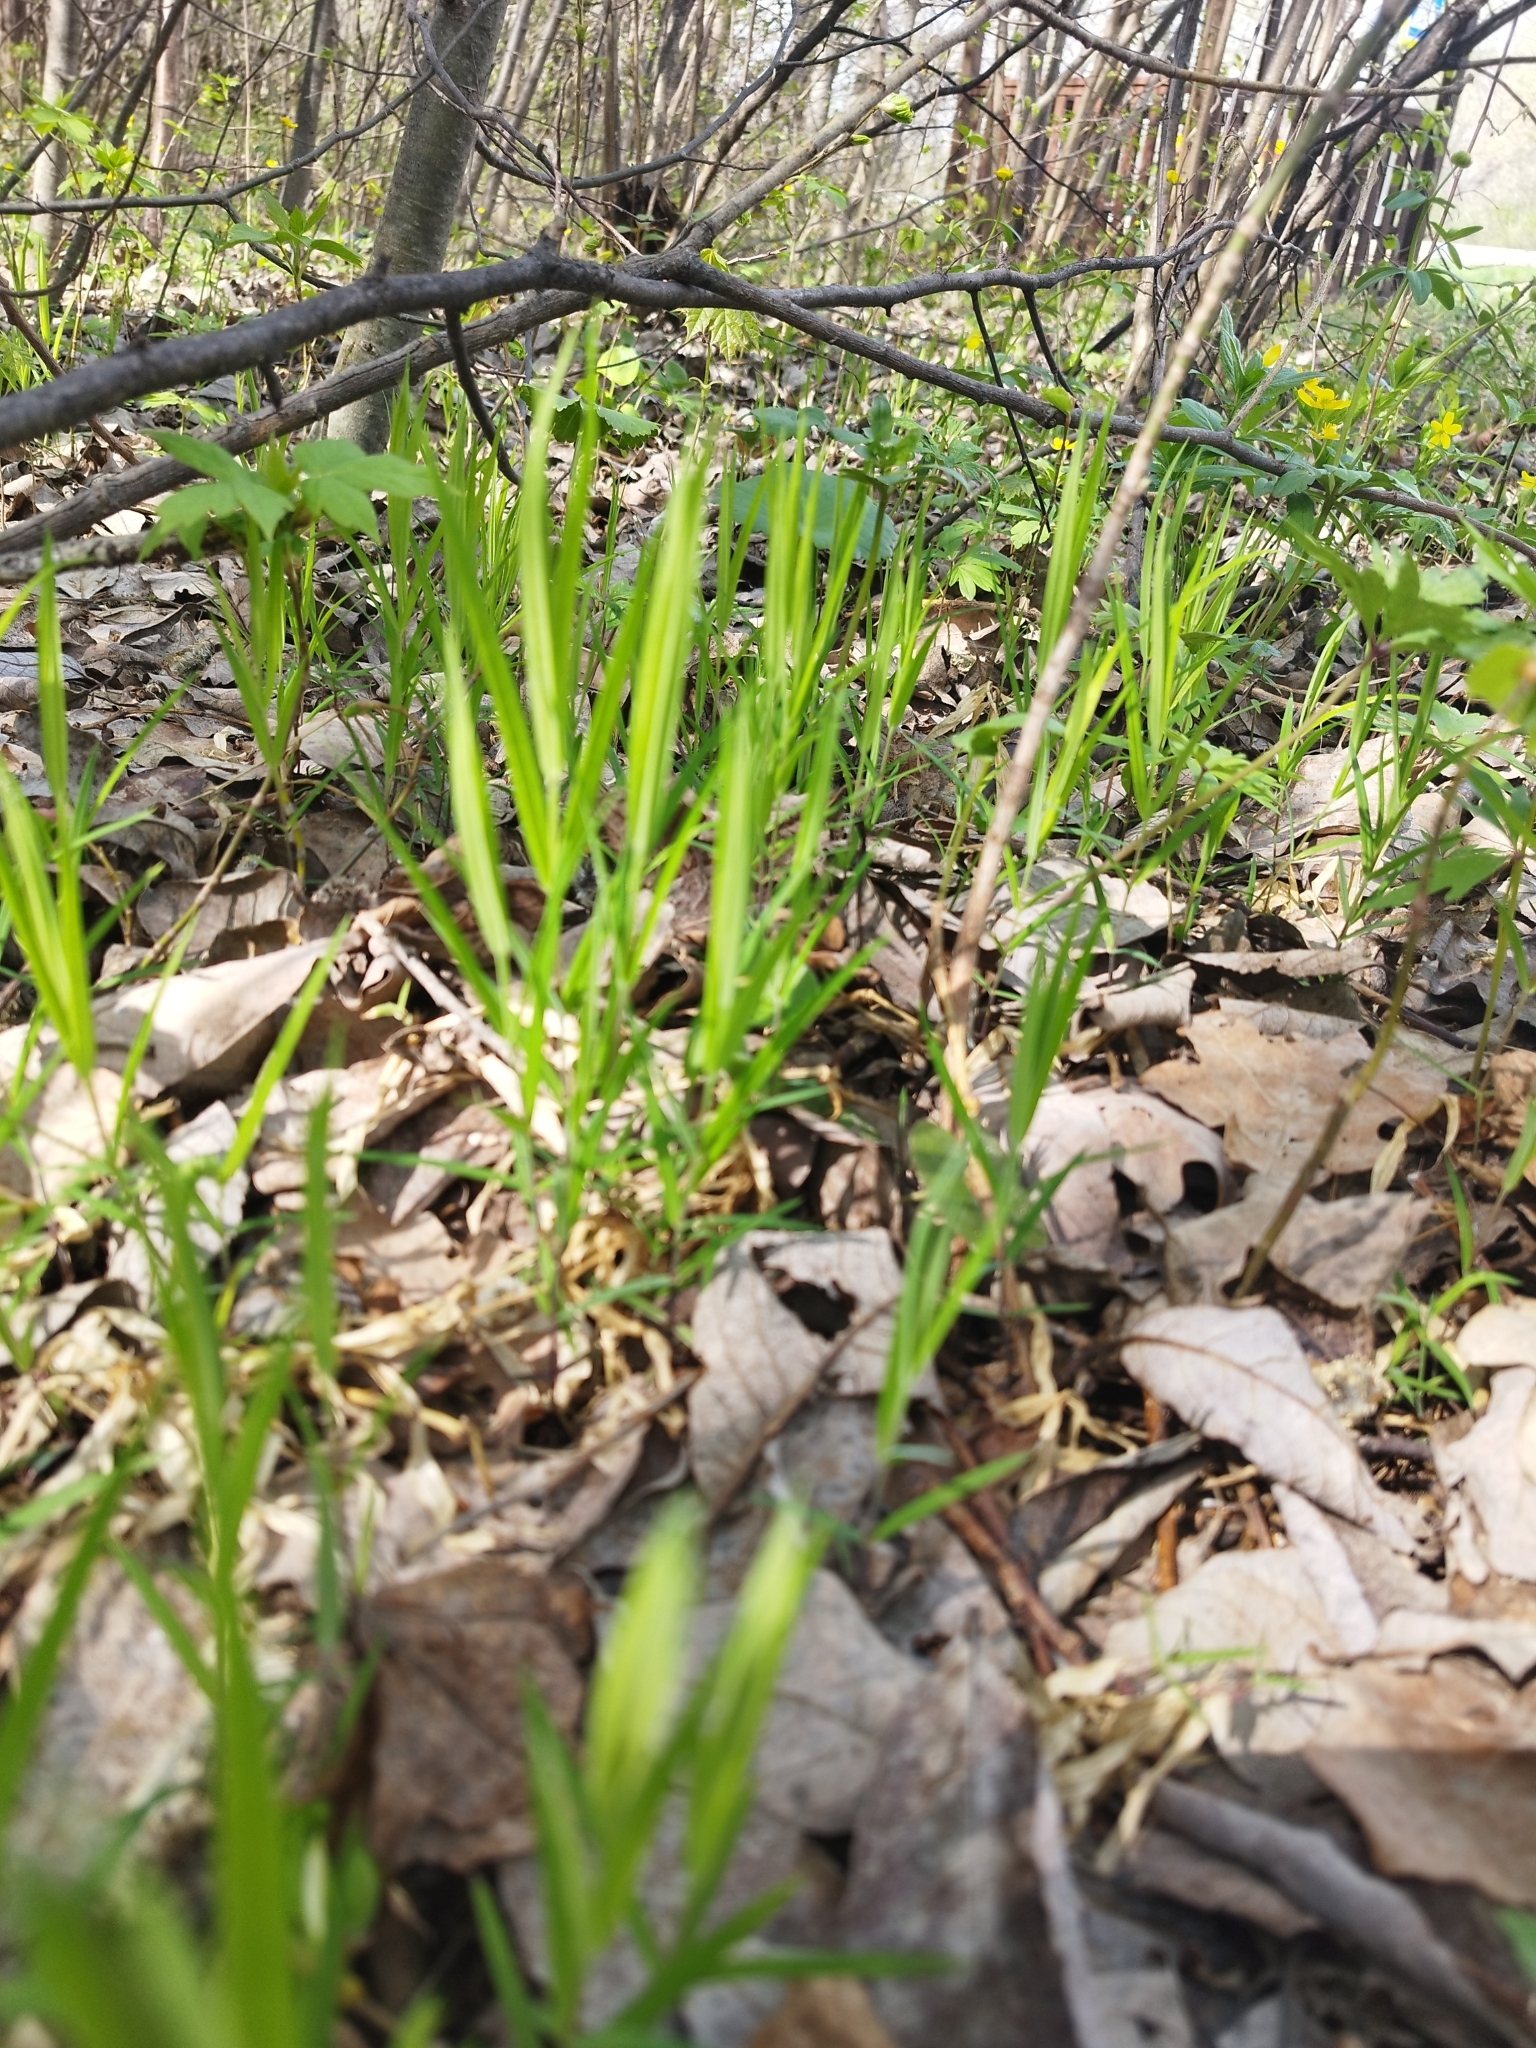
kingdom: Plantae
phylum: Tracheophyta
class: Magnoliopsida
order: Caryophyllales
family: Caryophyllaceae
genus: Rabelera
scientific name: Rabelera holostea
